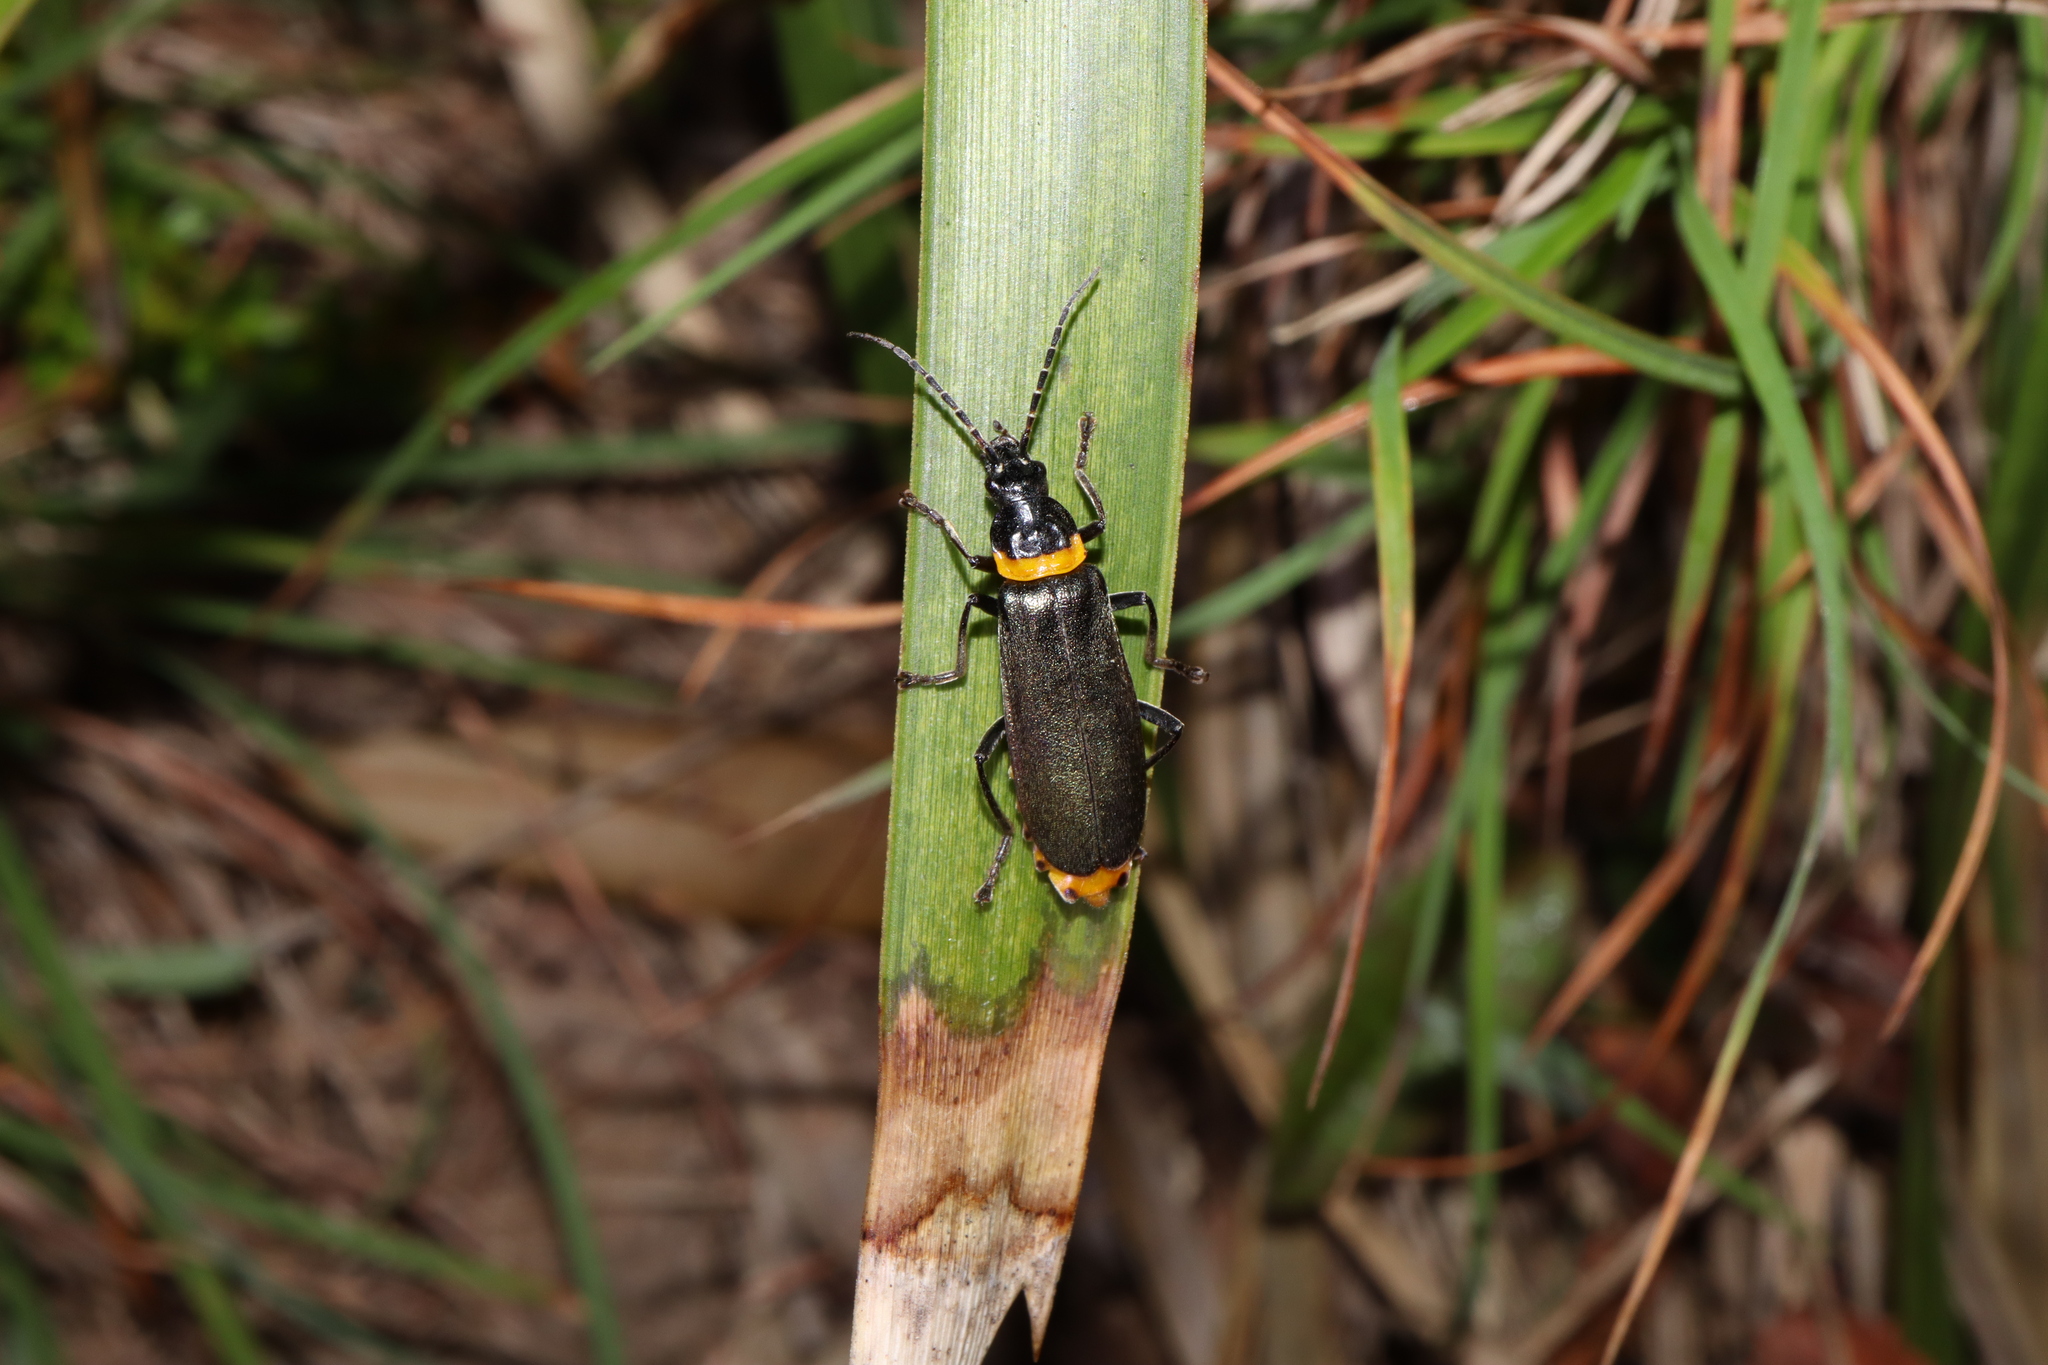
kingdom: Animalia
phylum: Arthropoda
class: Insecta
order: Coleoptera
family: Cantharidae
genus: Chauliognathus
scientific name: Chauliognathus
